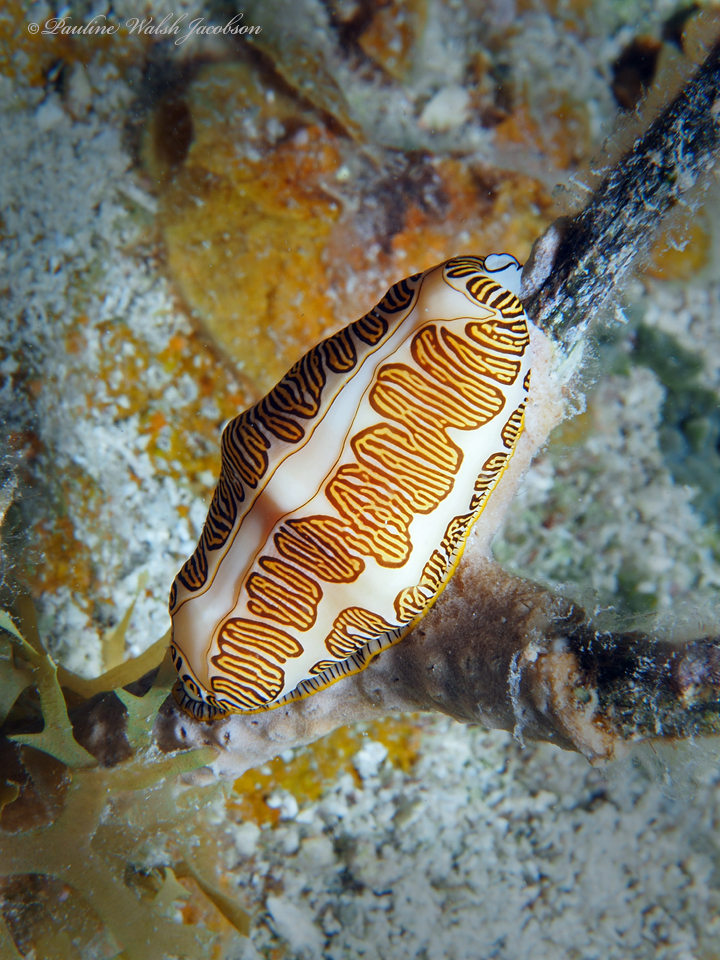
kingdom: Animalia
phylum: Mollusca
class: Gastropoda
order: Littorinimorpha
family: Ovulidae
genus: Cyphoma
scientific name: Cyphoma signatum
